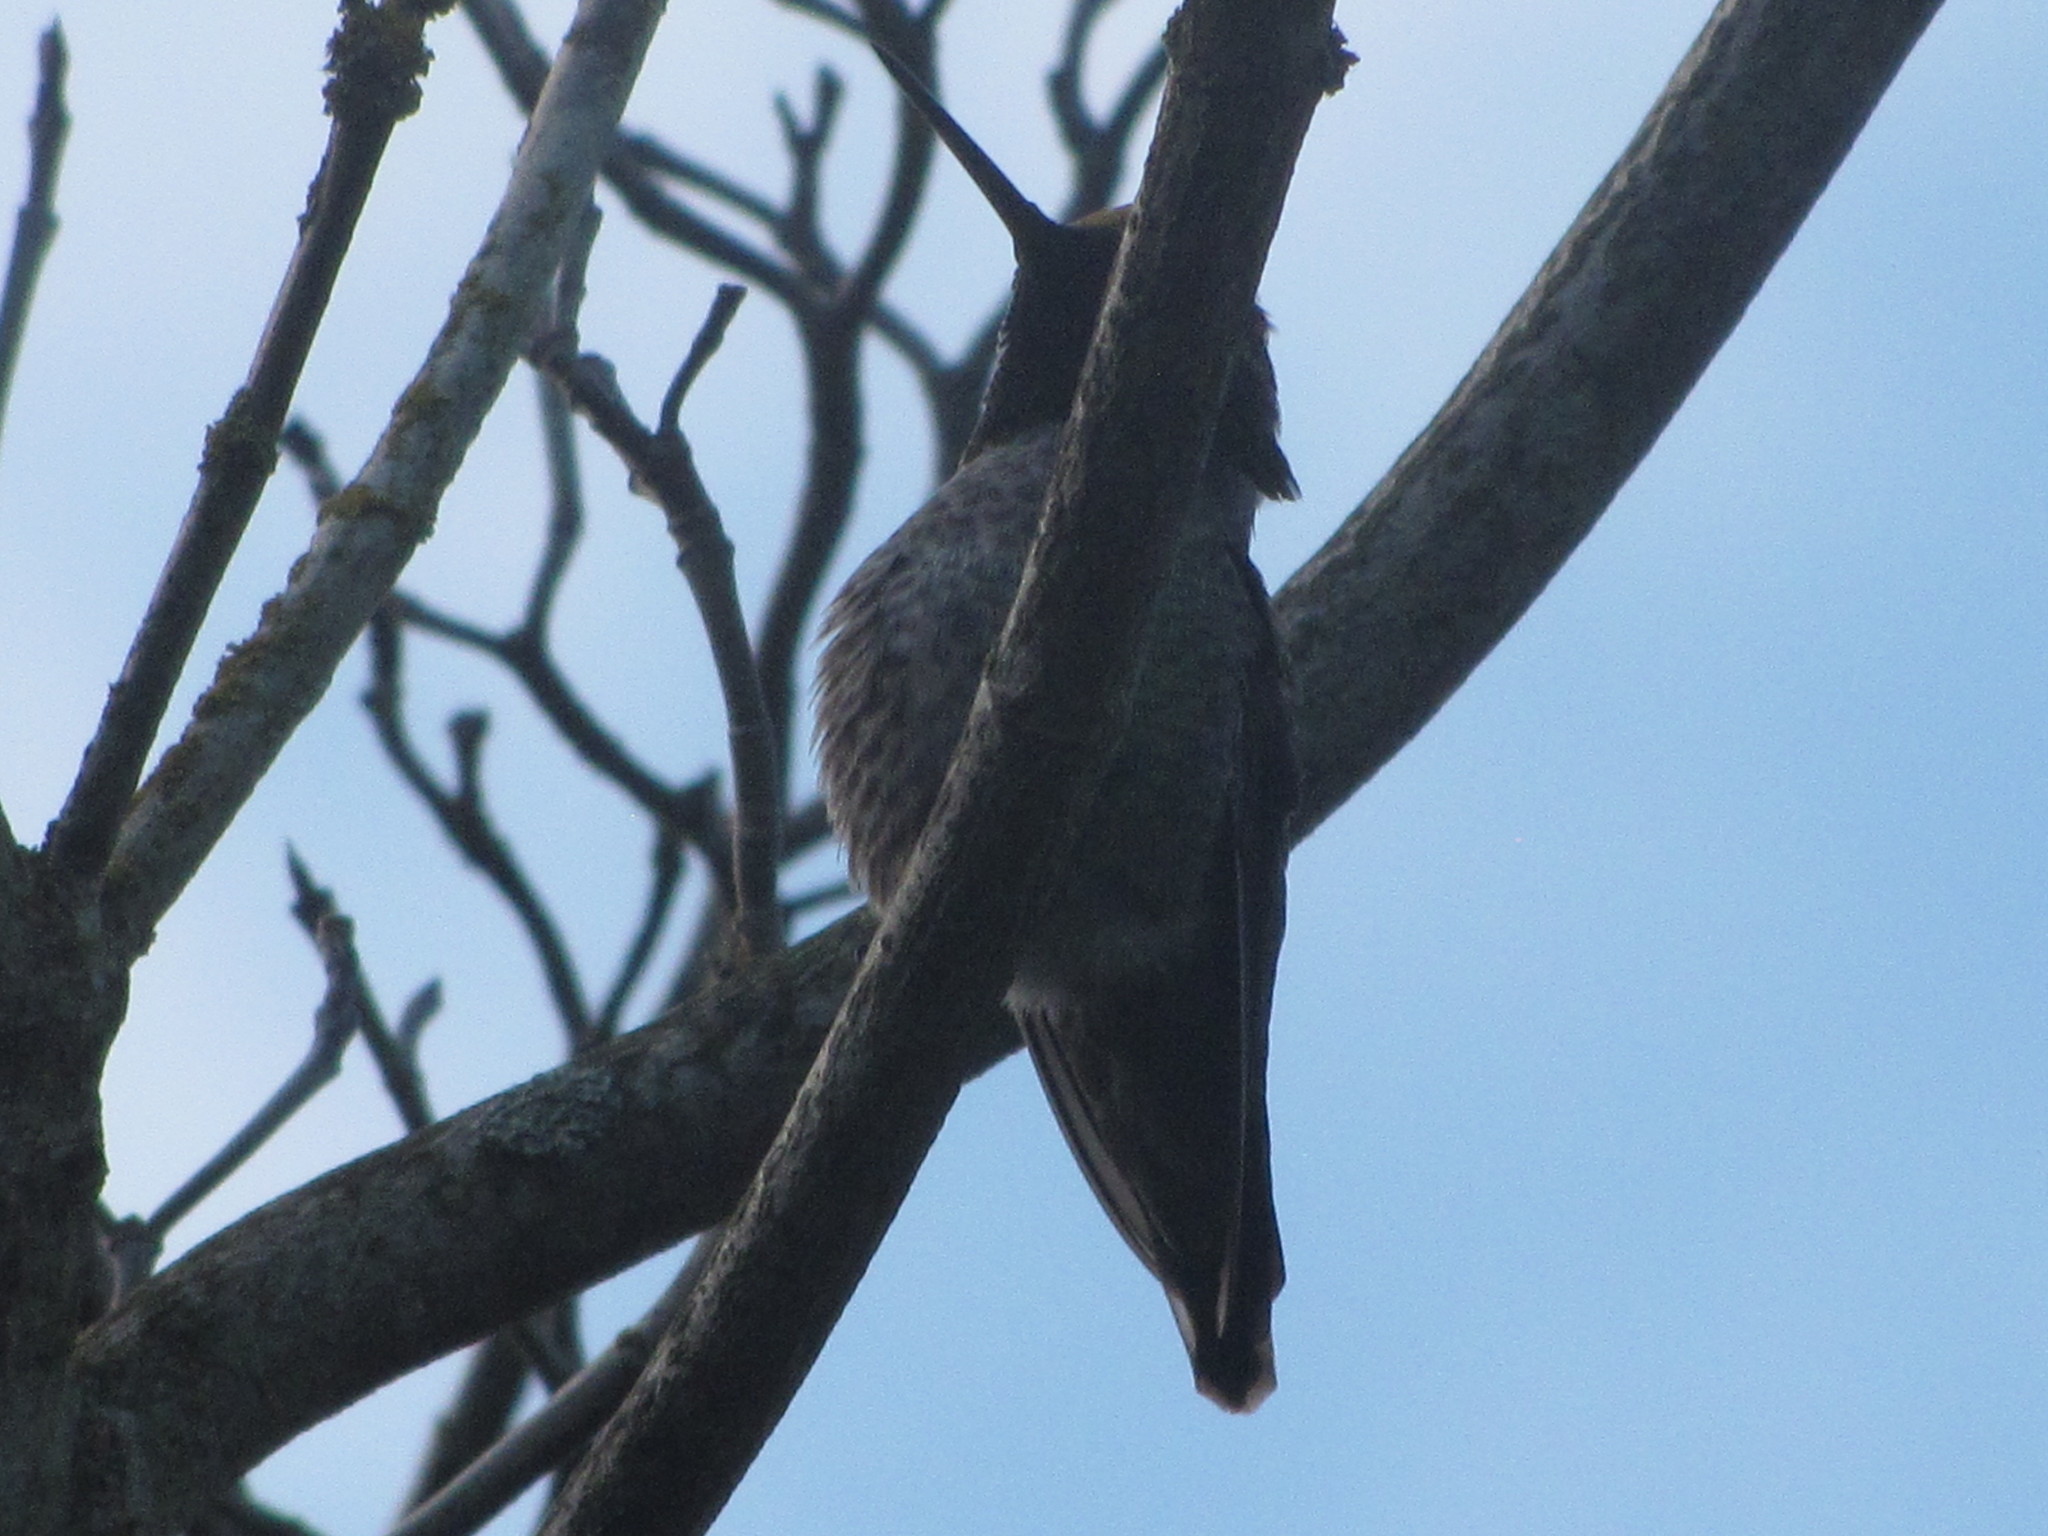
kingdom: Animalia
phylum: Chordata
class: Aves
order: Apodiformes
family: Trochilidae
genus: Calypte
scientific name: Calypte anna
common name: Anna's hummingbird
